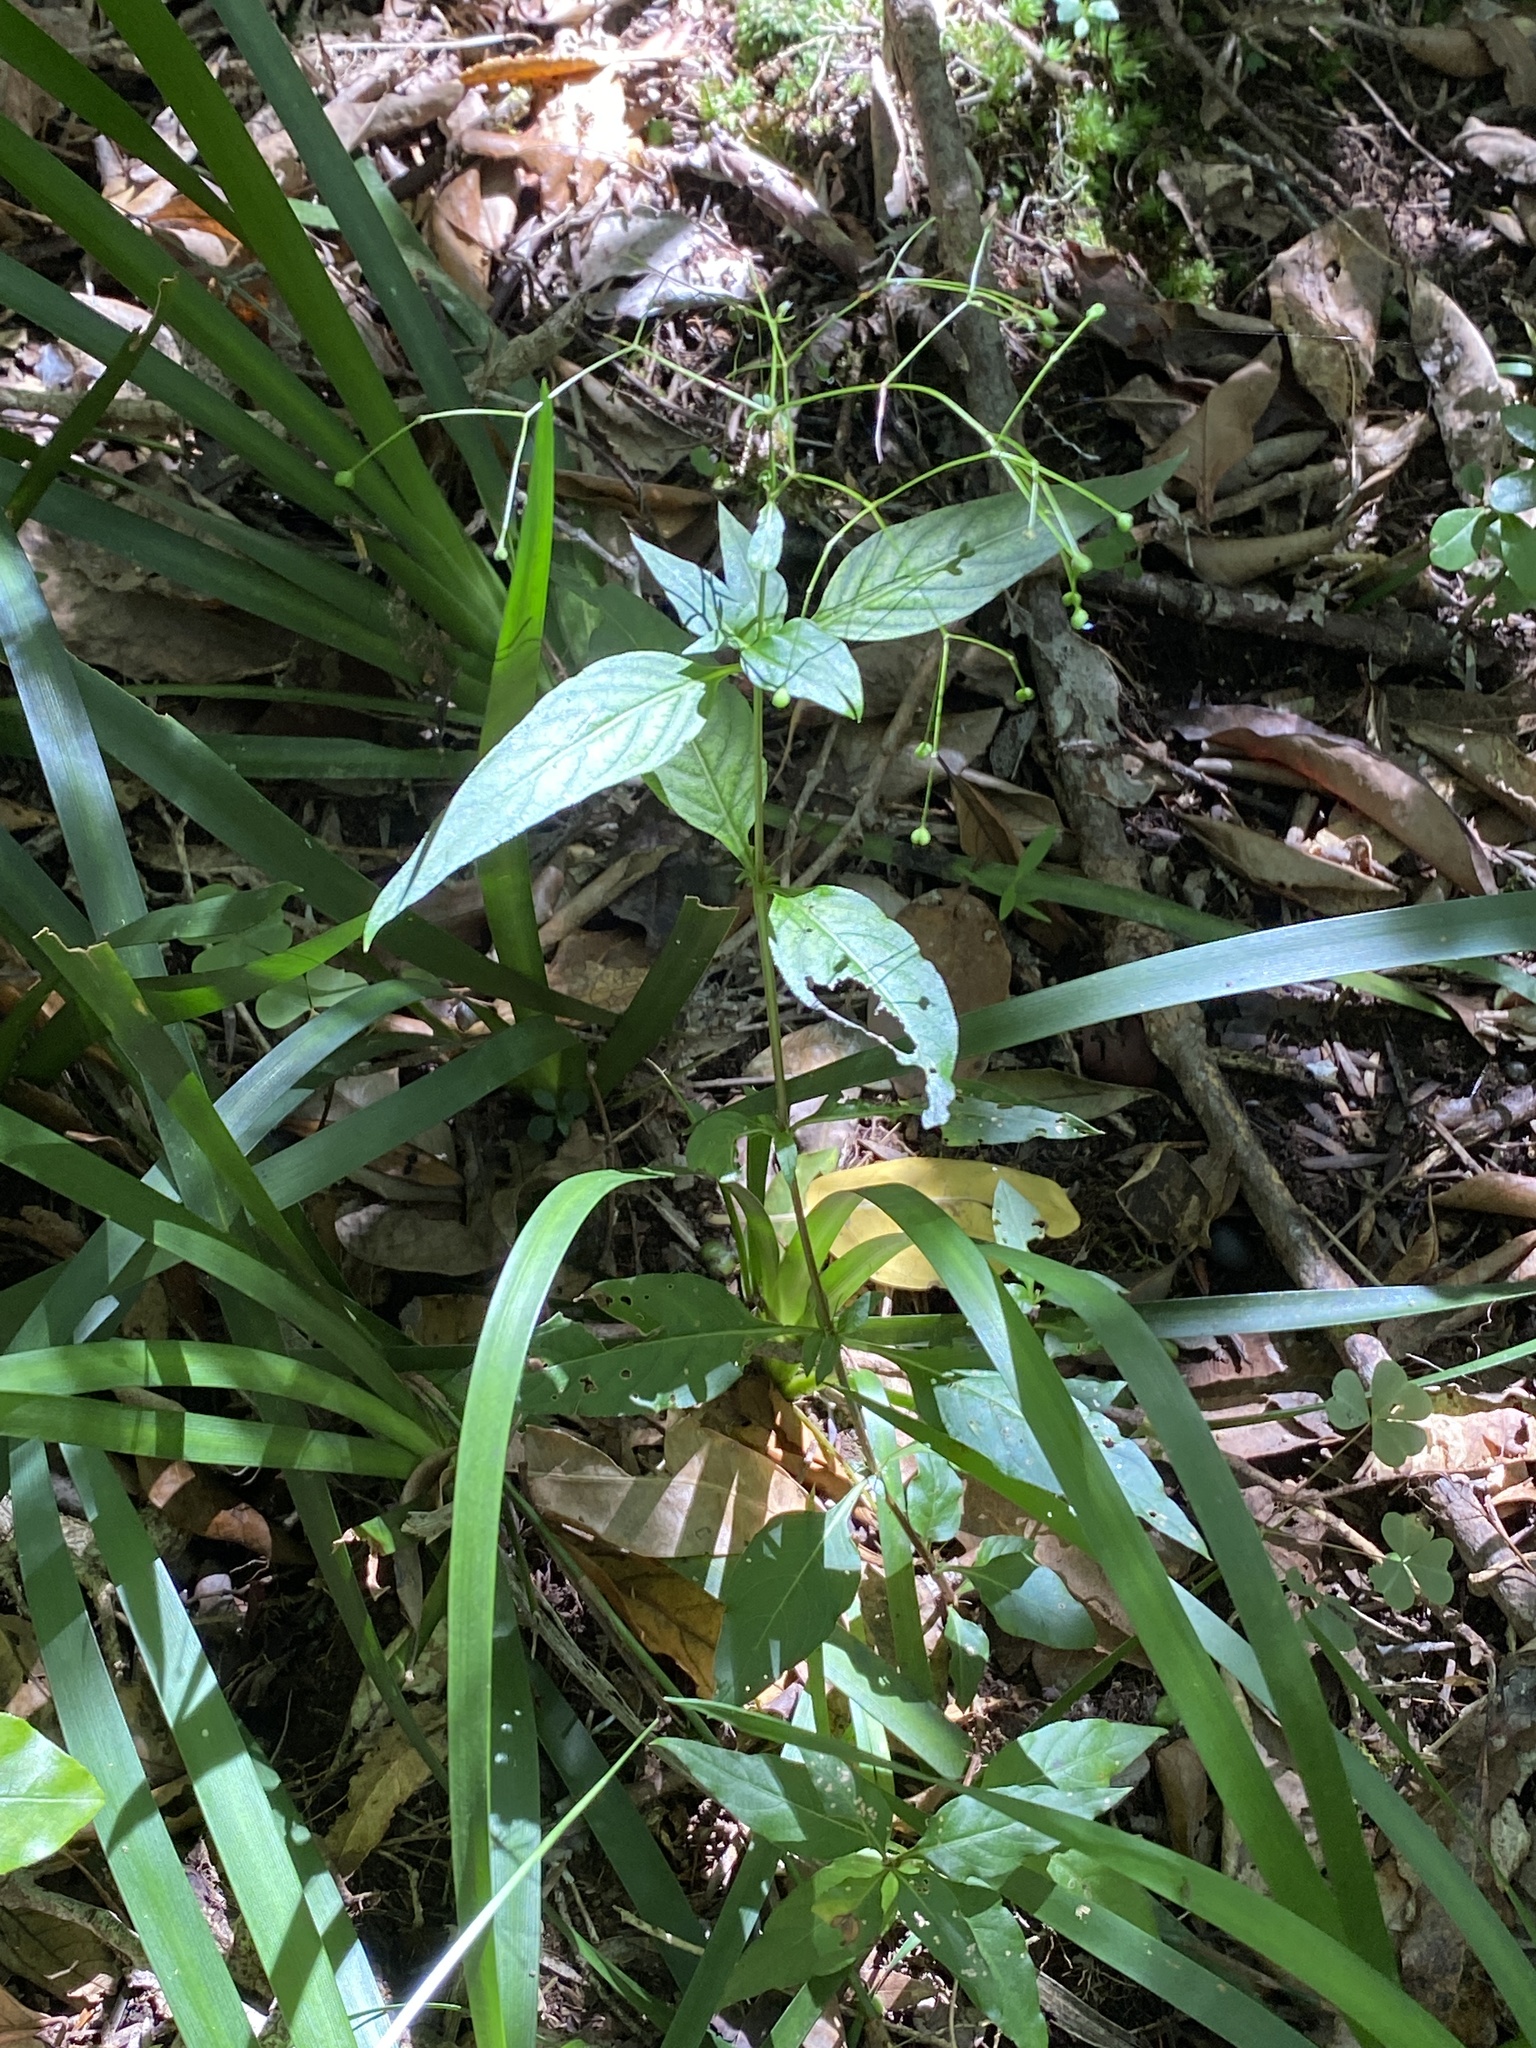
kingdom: Plantae
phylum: Tracheophyta
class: Magnoliopsida
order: Gentianales
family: Rubiaceae
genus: Galopina
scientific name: Galopina circaeoides
